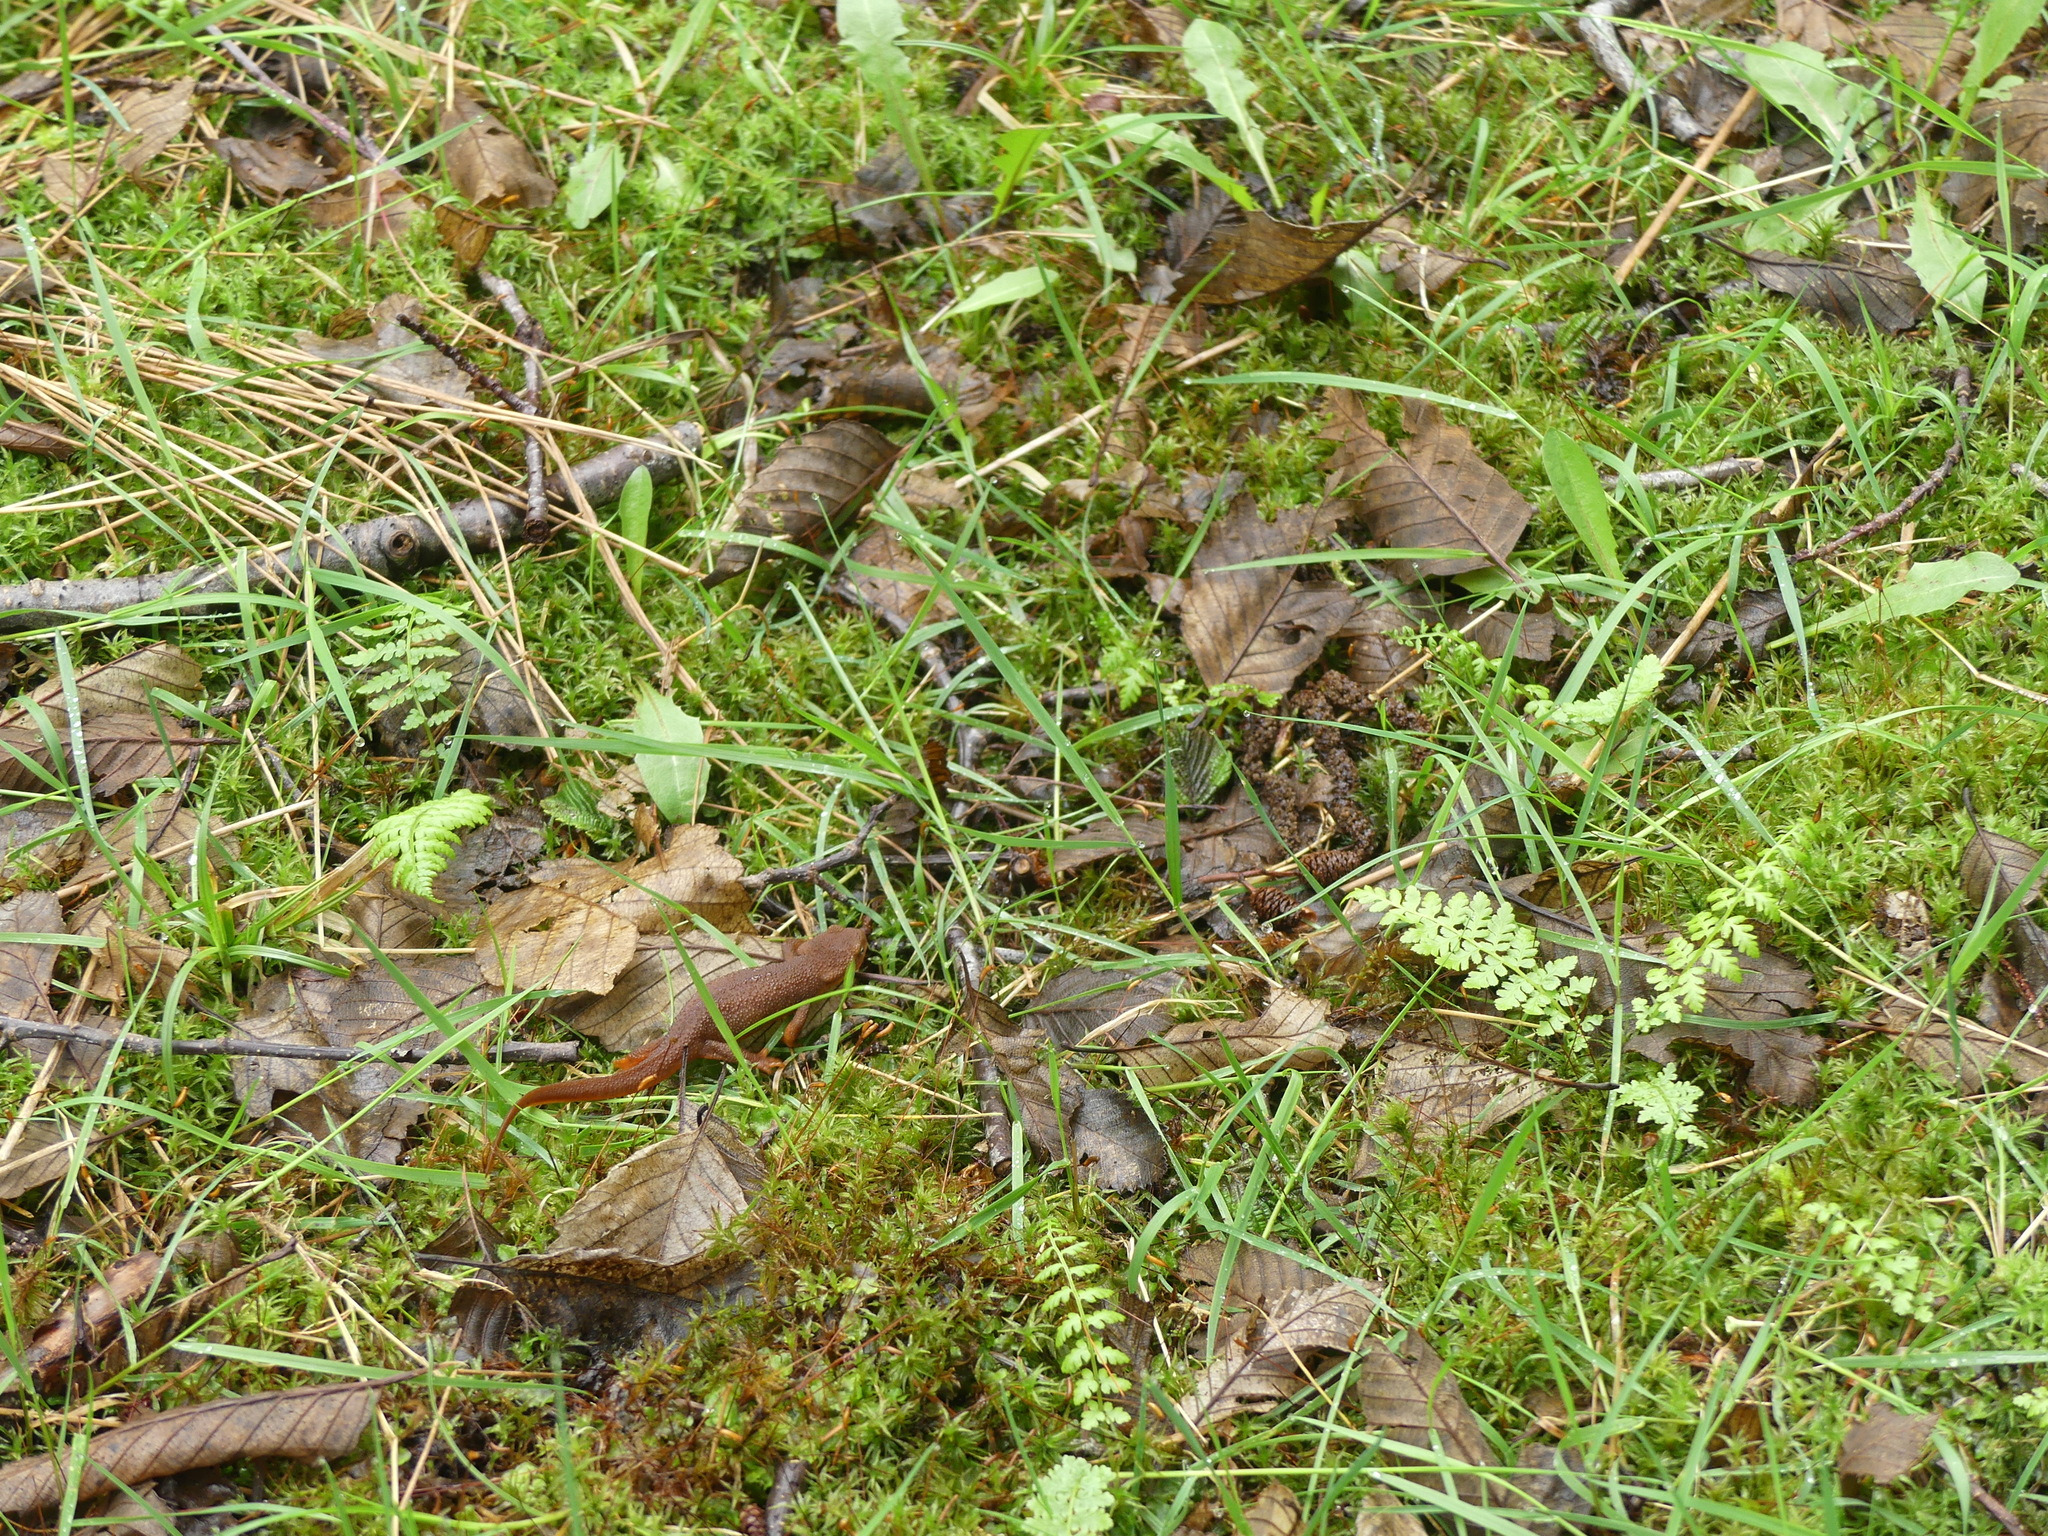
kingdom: Animalia
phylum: Chordata
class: Amphibia
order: Caudata
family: Salamandridae
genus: Taricha
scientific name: Taricha granulosa
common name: Roughskin newt
